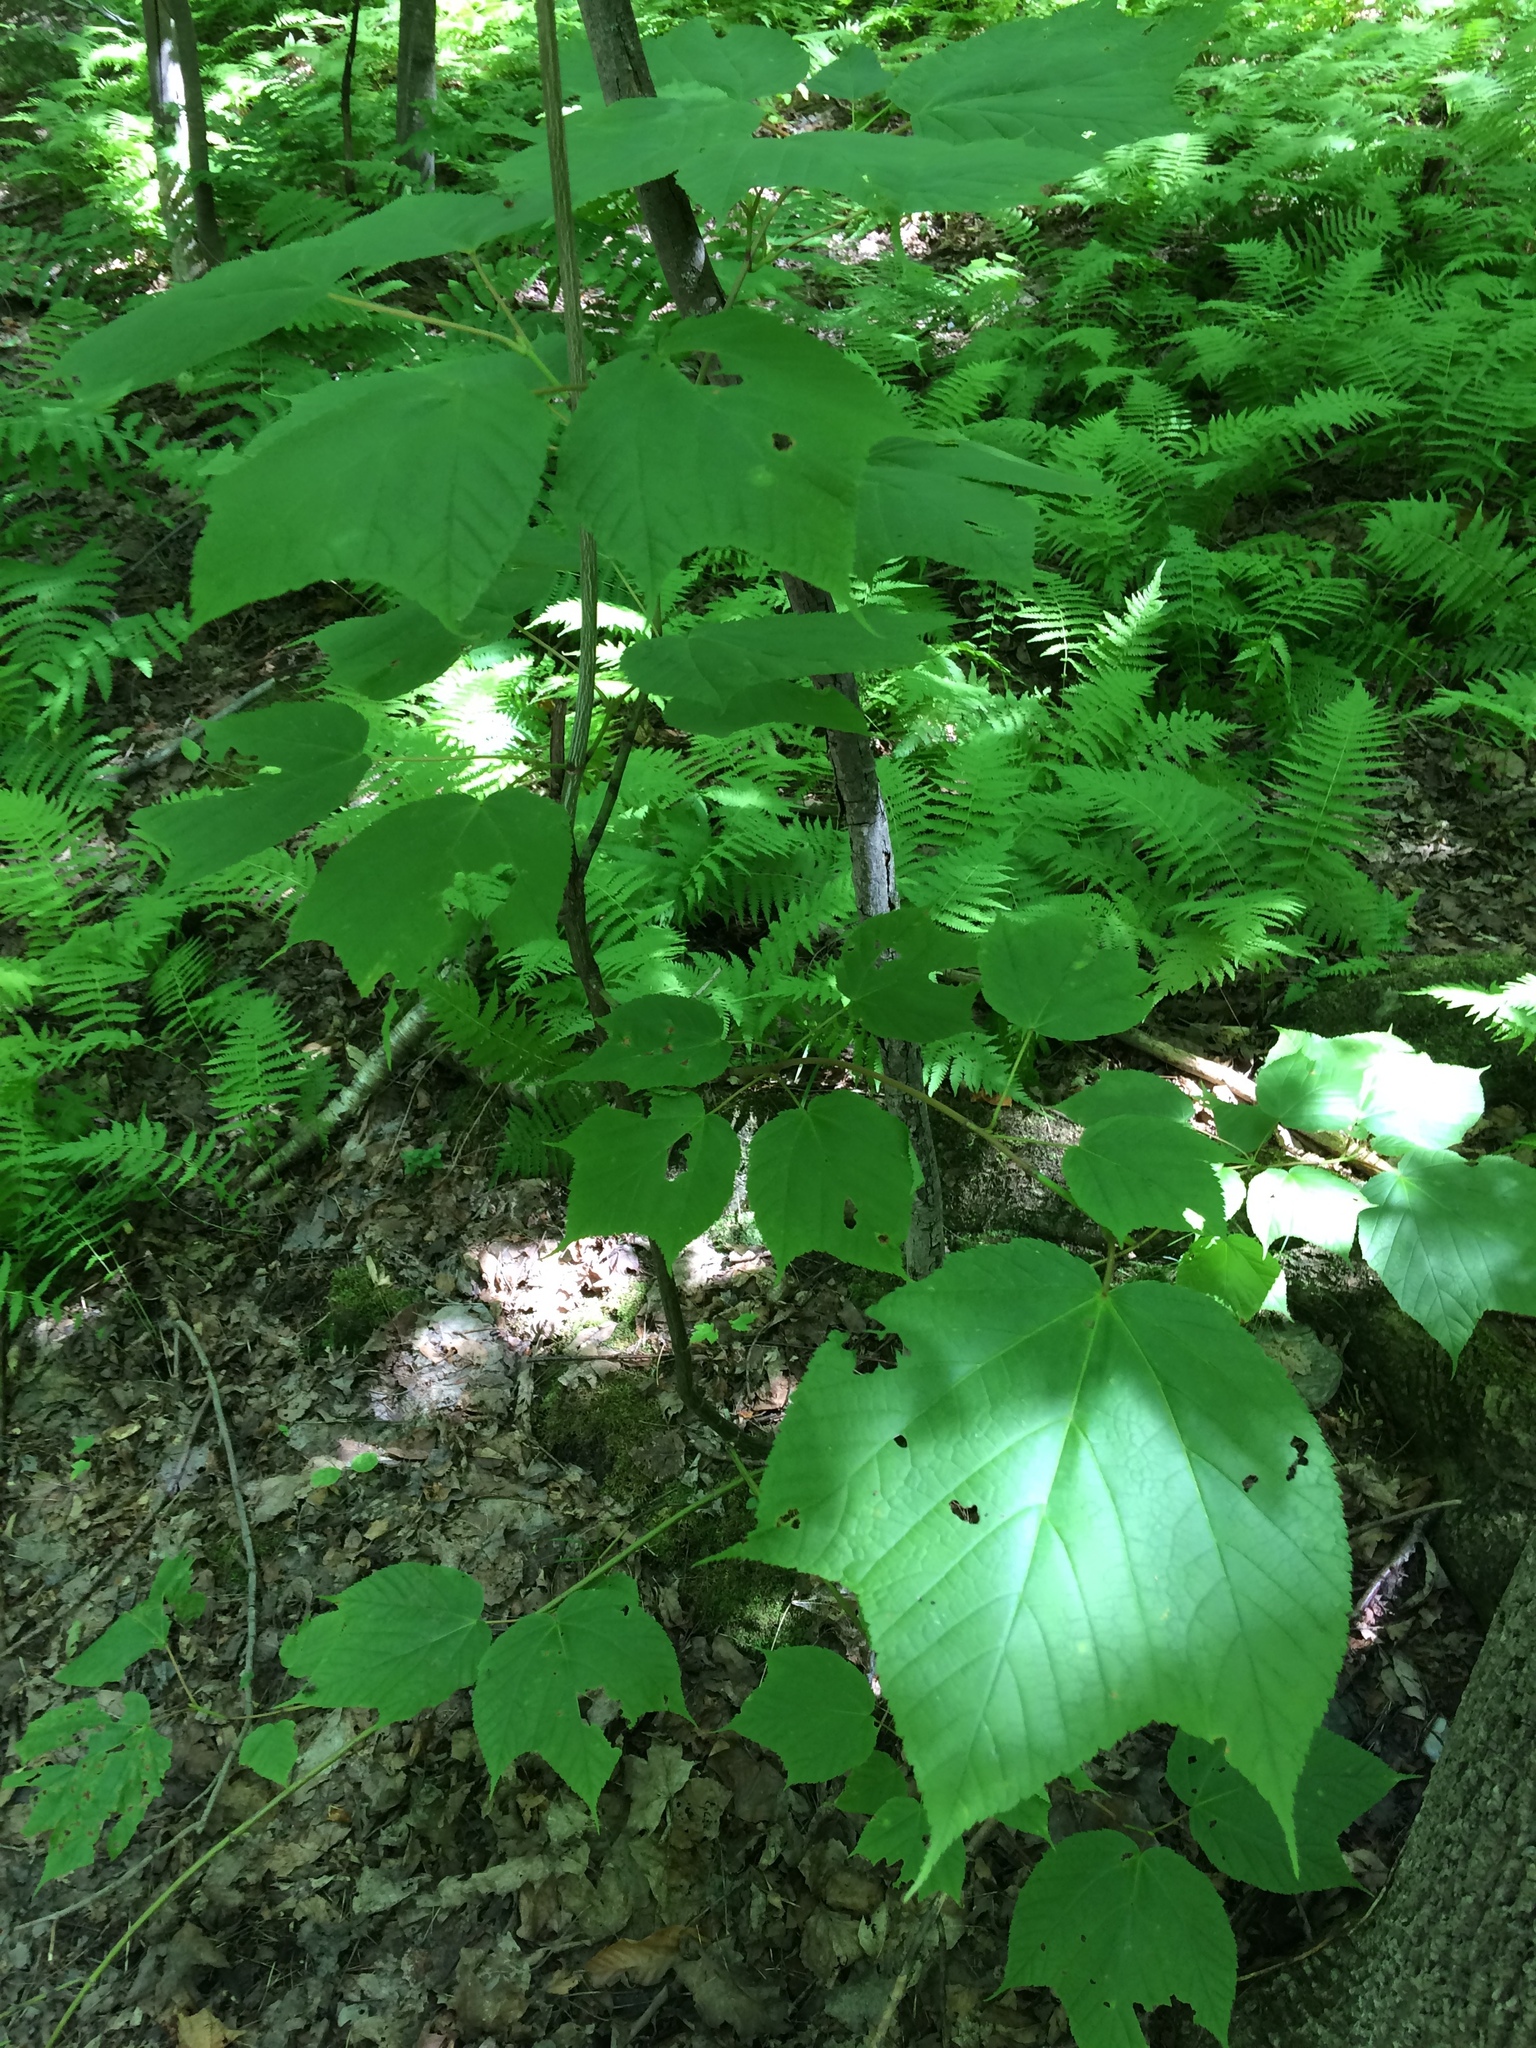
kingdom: Plantae
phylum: Tracheophyta
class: Magnoliopsida
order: Sapindales
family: Sapindaceae
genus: Acer
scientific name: Acer pensylvanicum
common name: Moosewood
